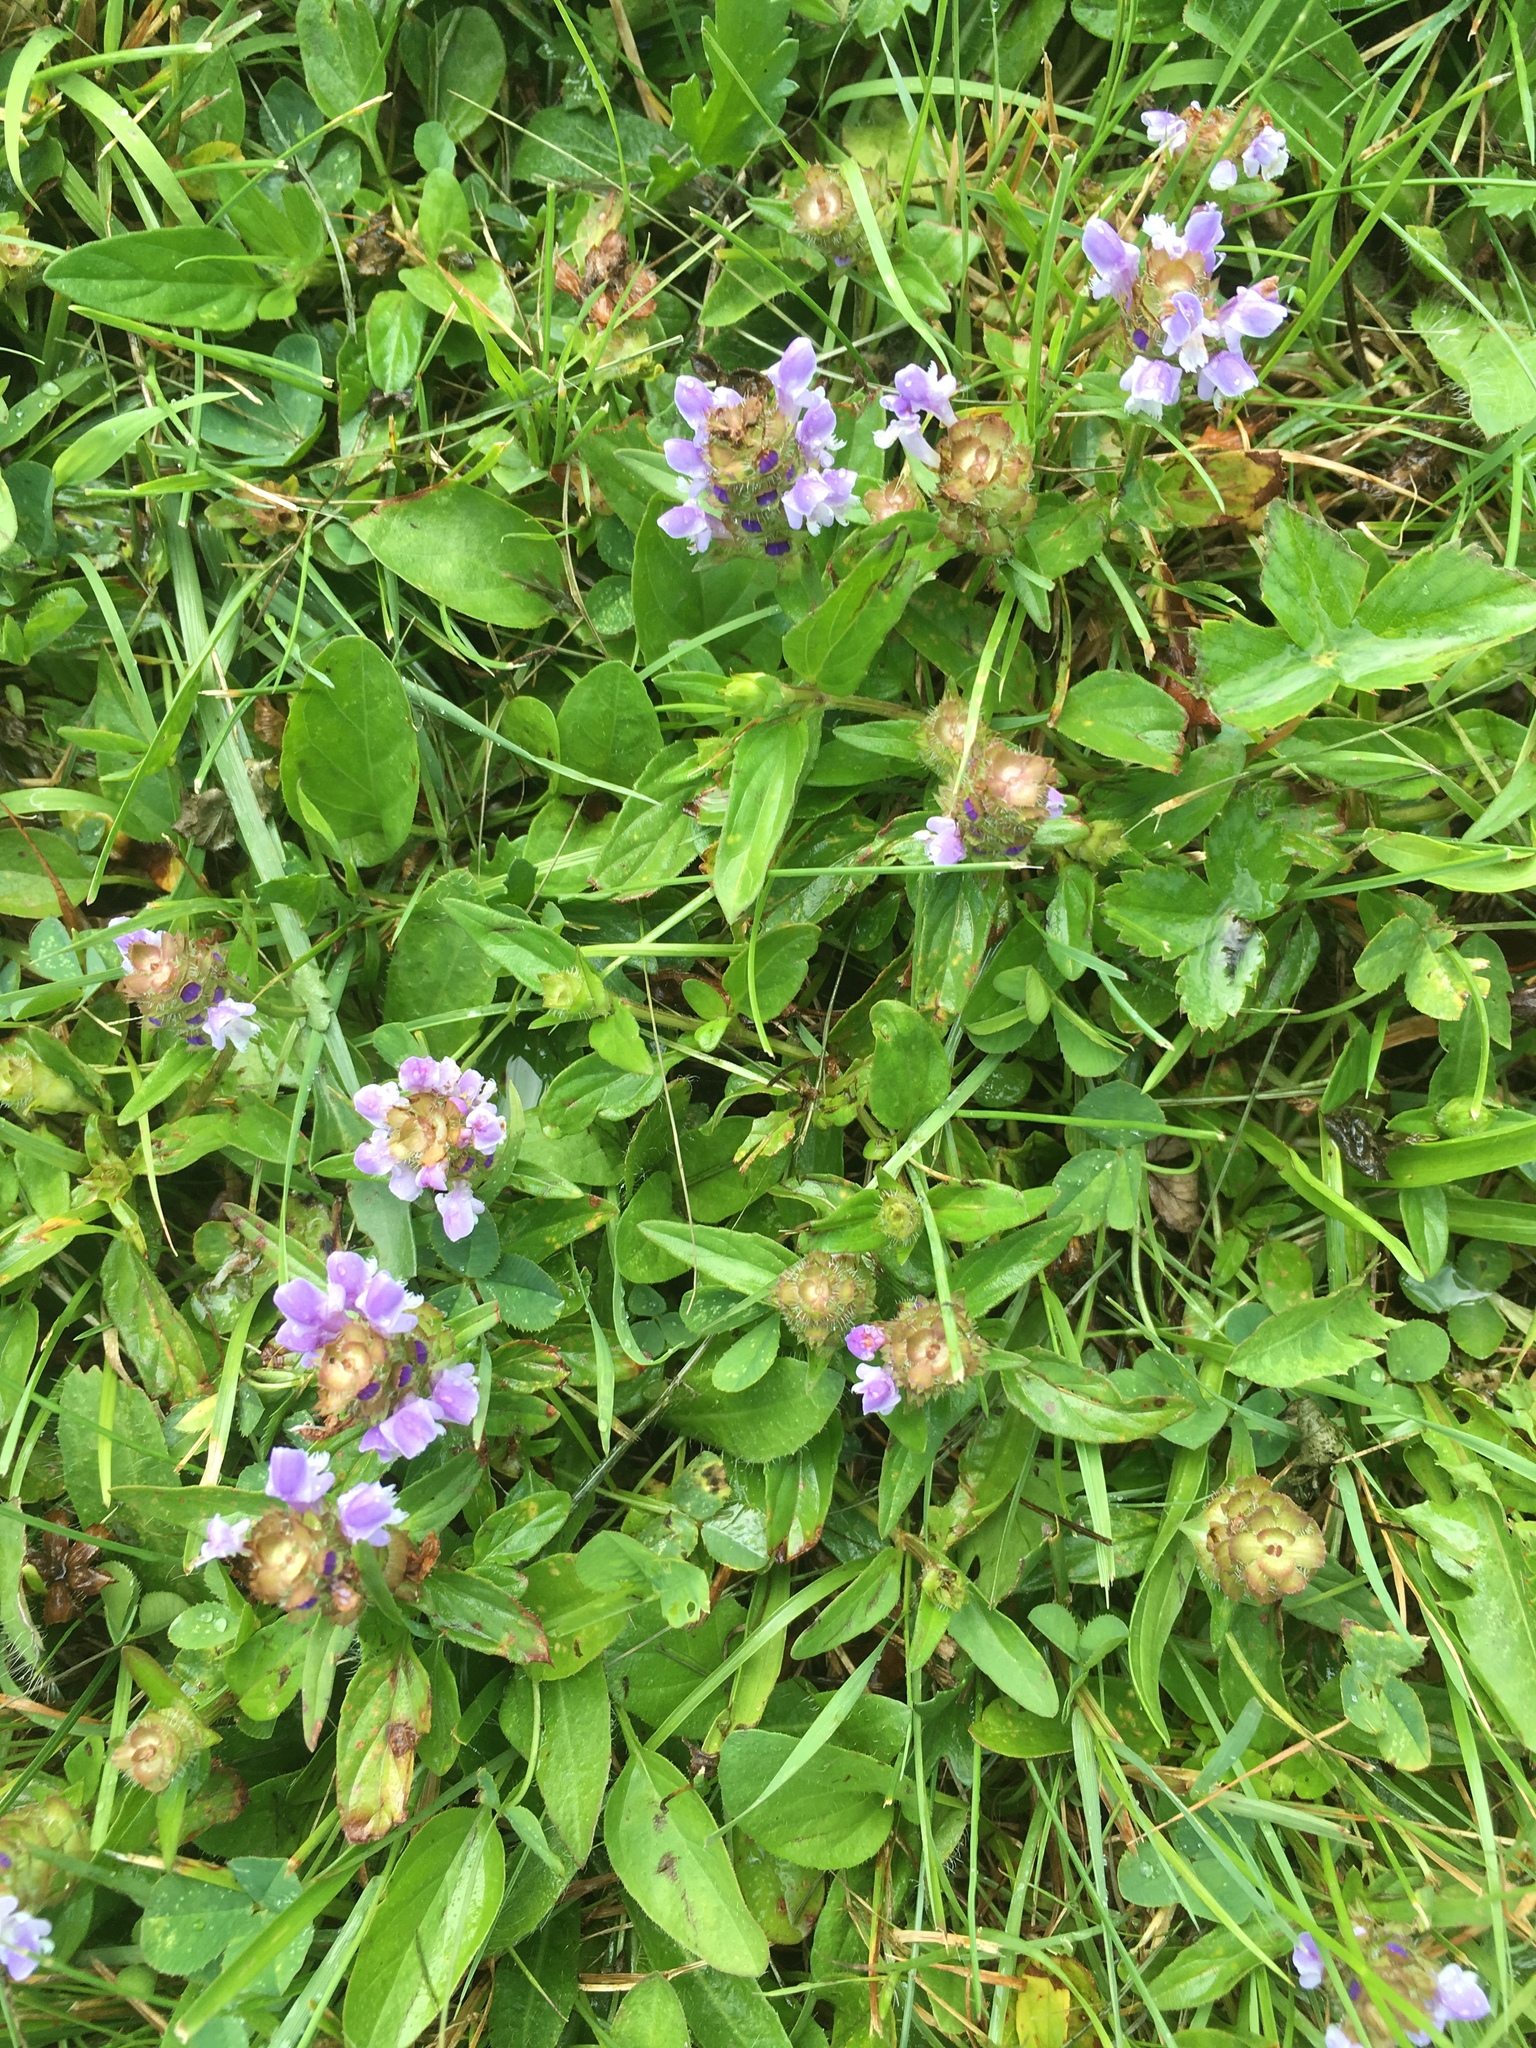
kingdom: Plantae
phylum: Tracheophyta
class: Magnoliopsida
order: Lamiales
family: Lamiaceae
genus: Prunella
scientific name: Prunella vulgaris
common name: Heal-all
